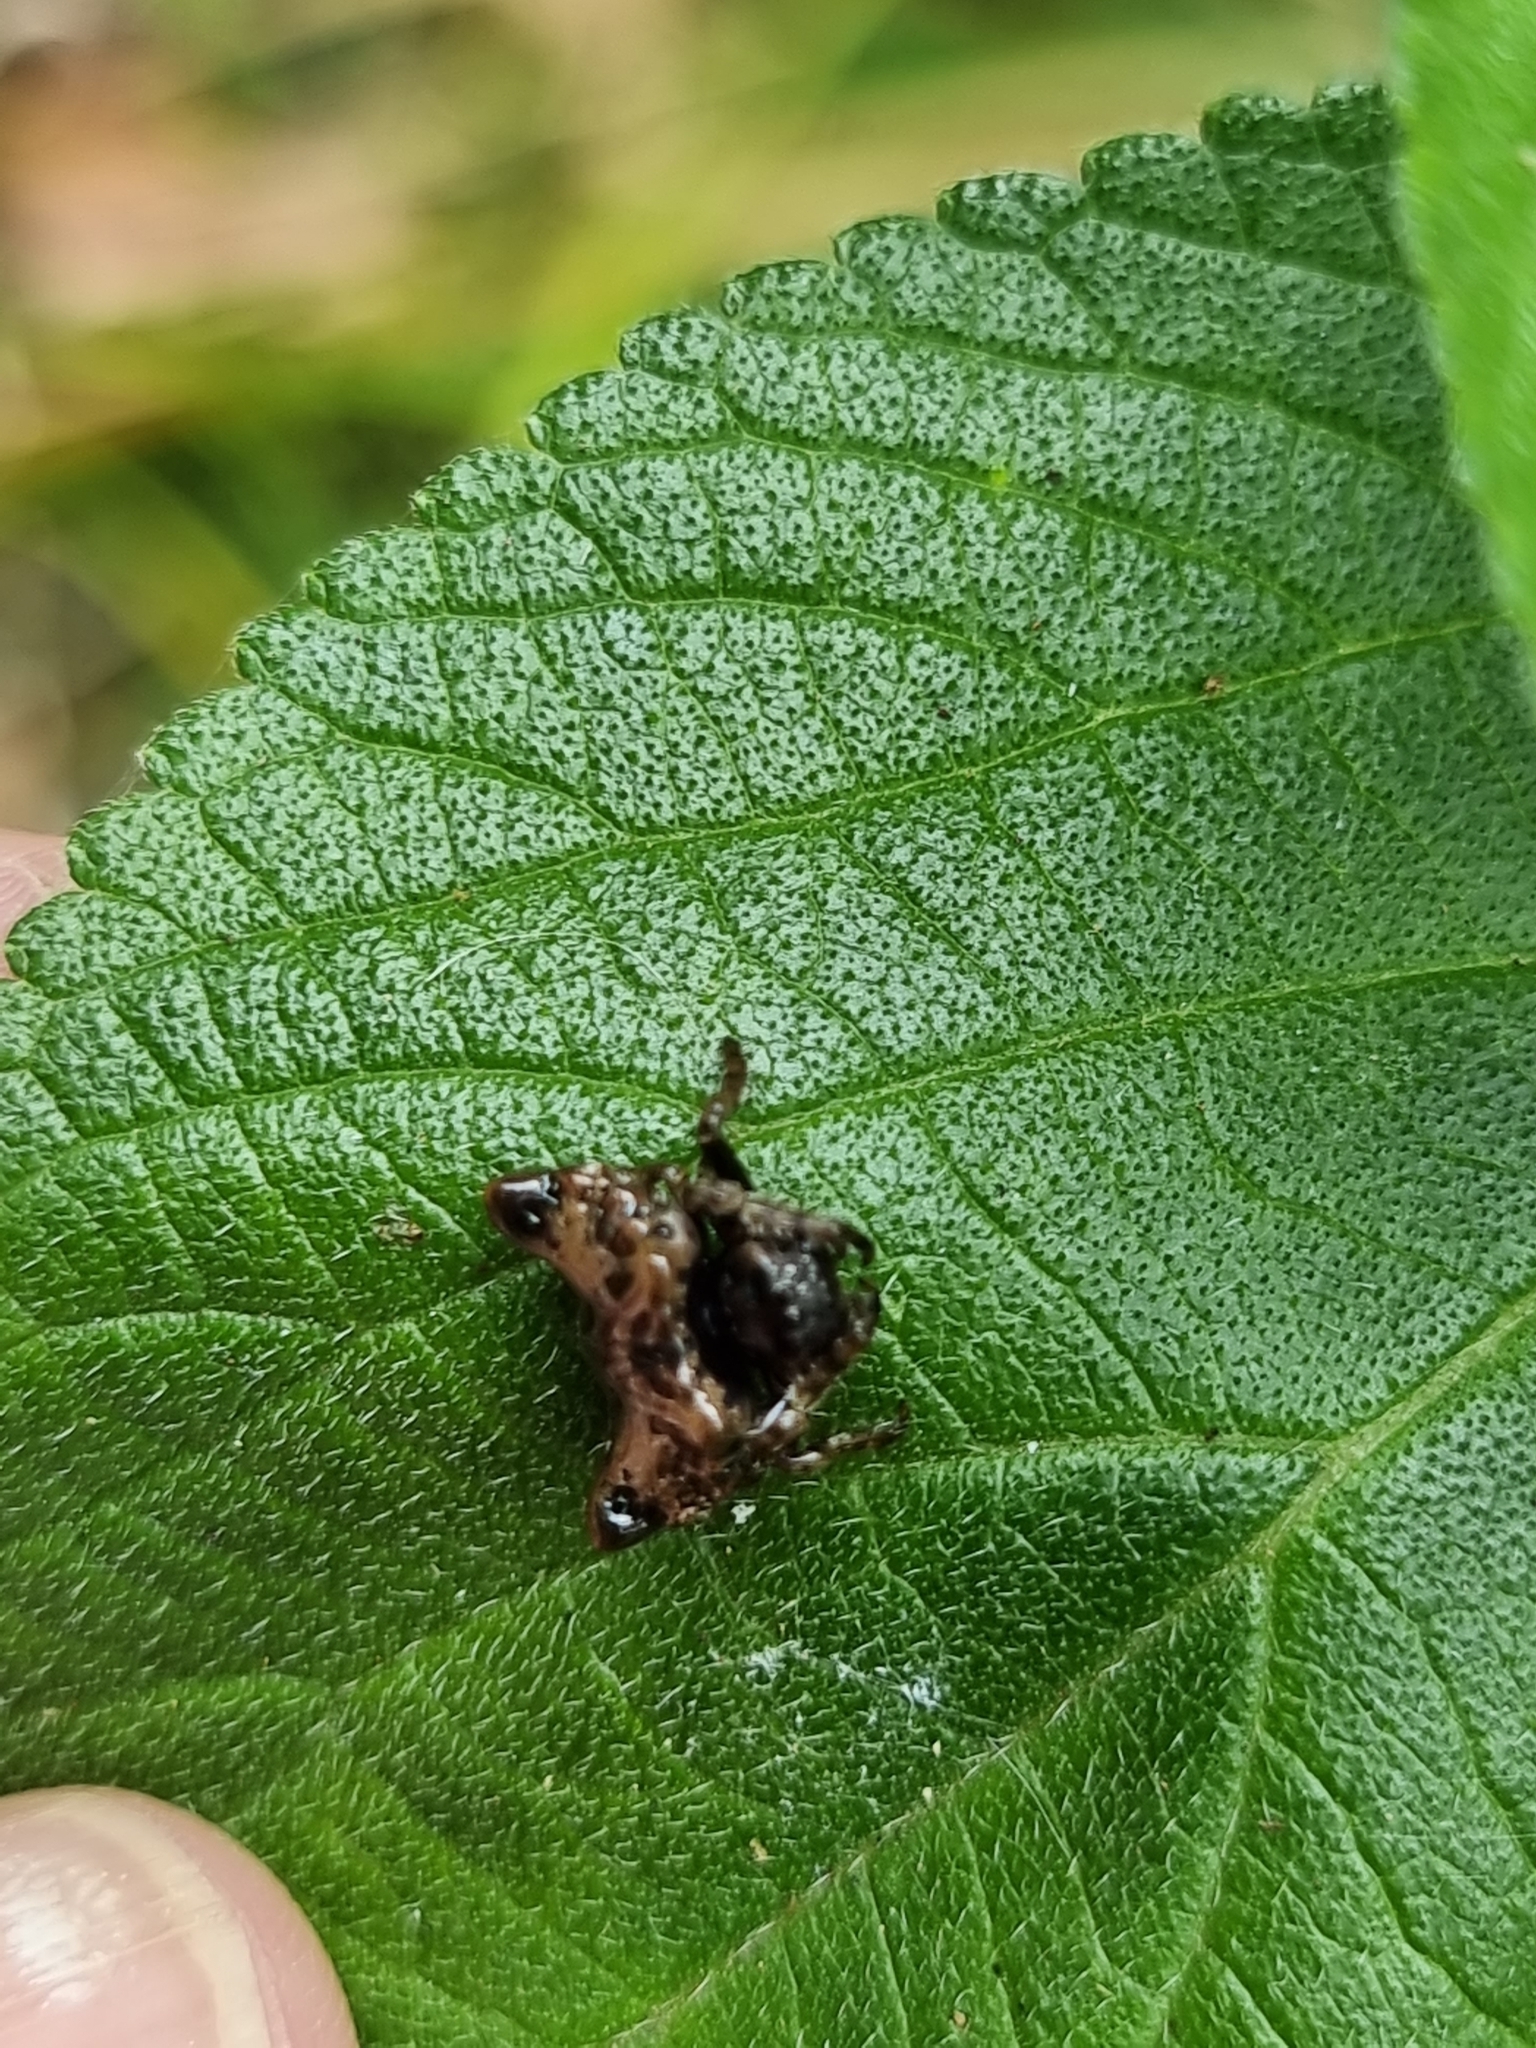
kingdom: Animalia
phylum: Arthropoda
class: Arachnida
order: Araneae
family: Arkyidae
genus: Arkys
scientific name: Arkys curtulus
